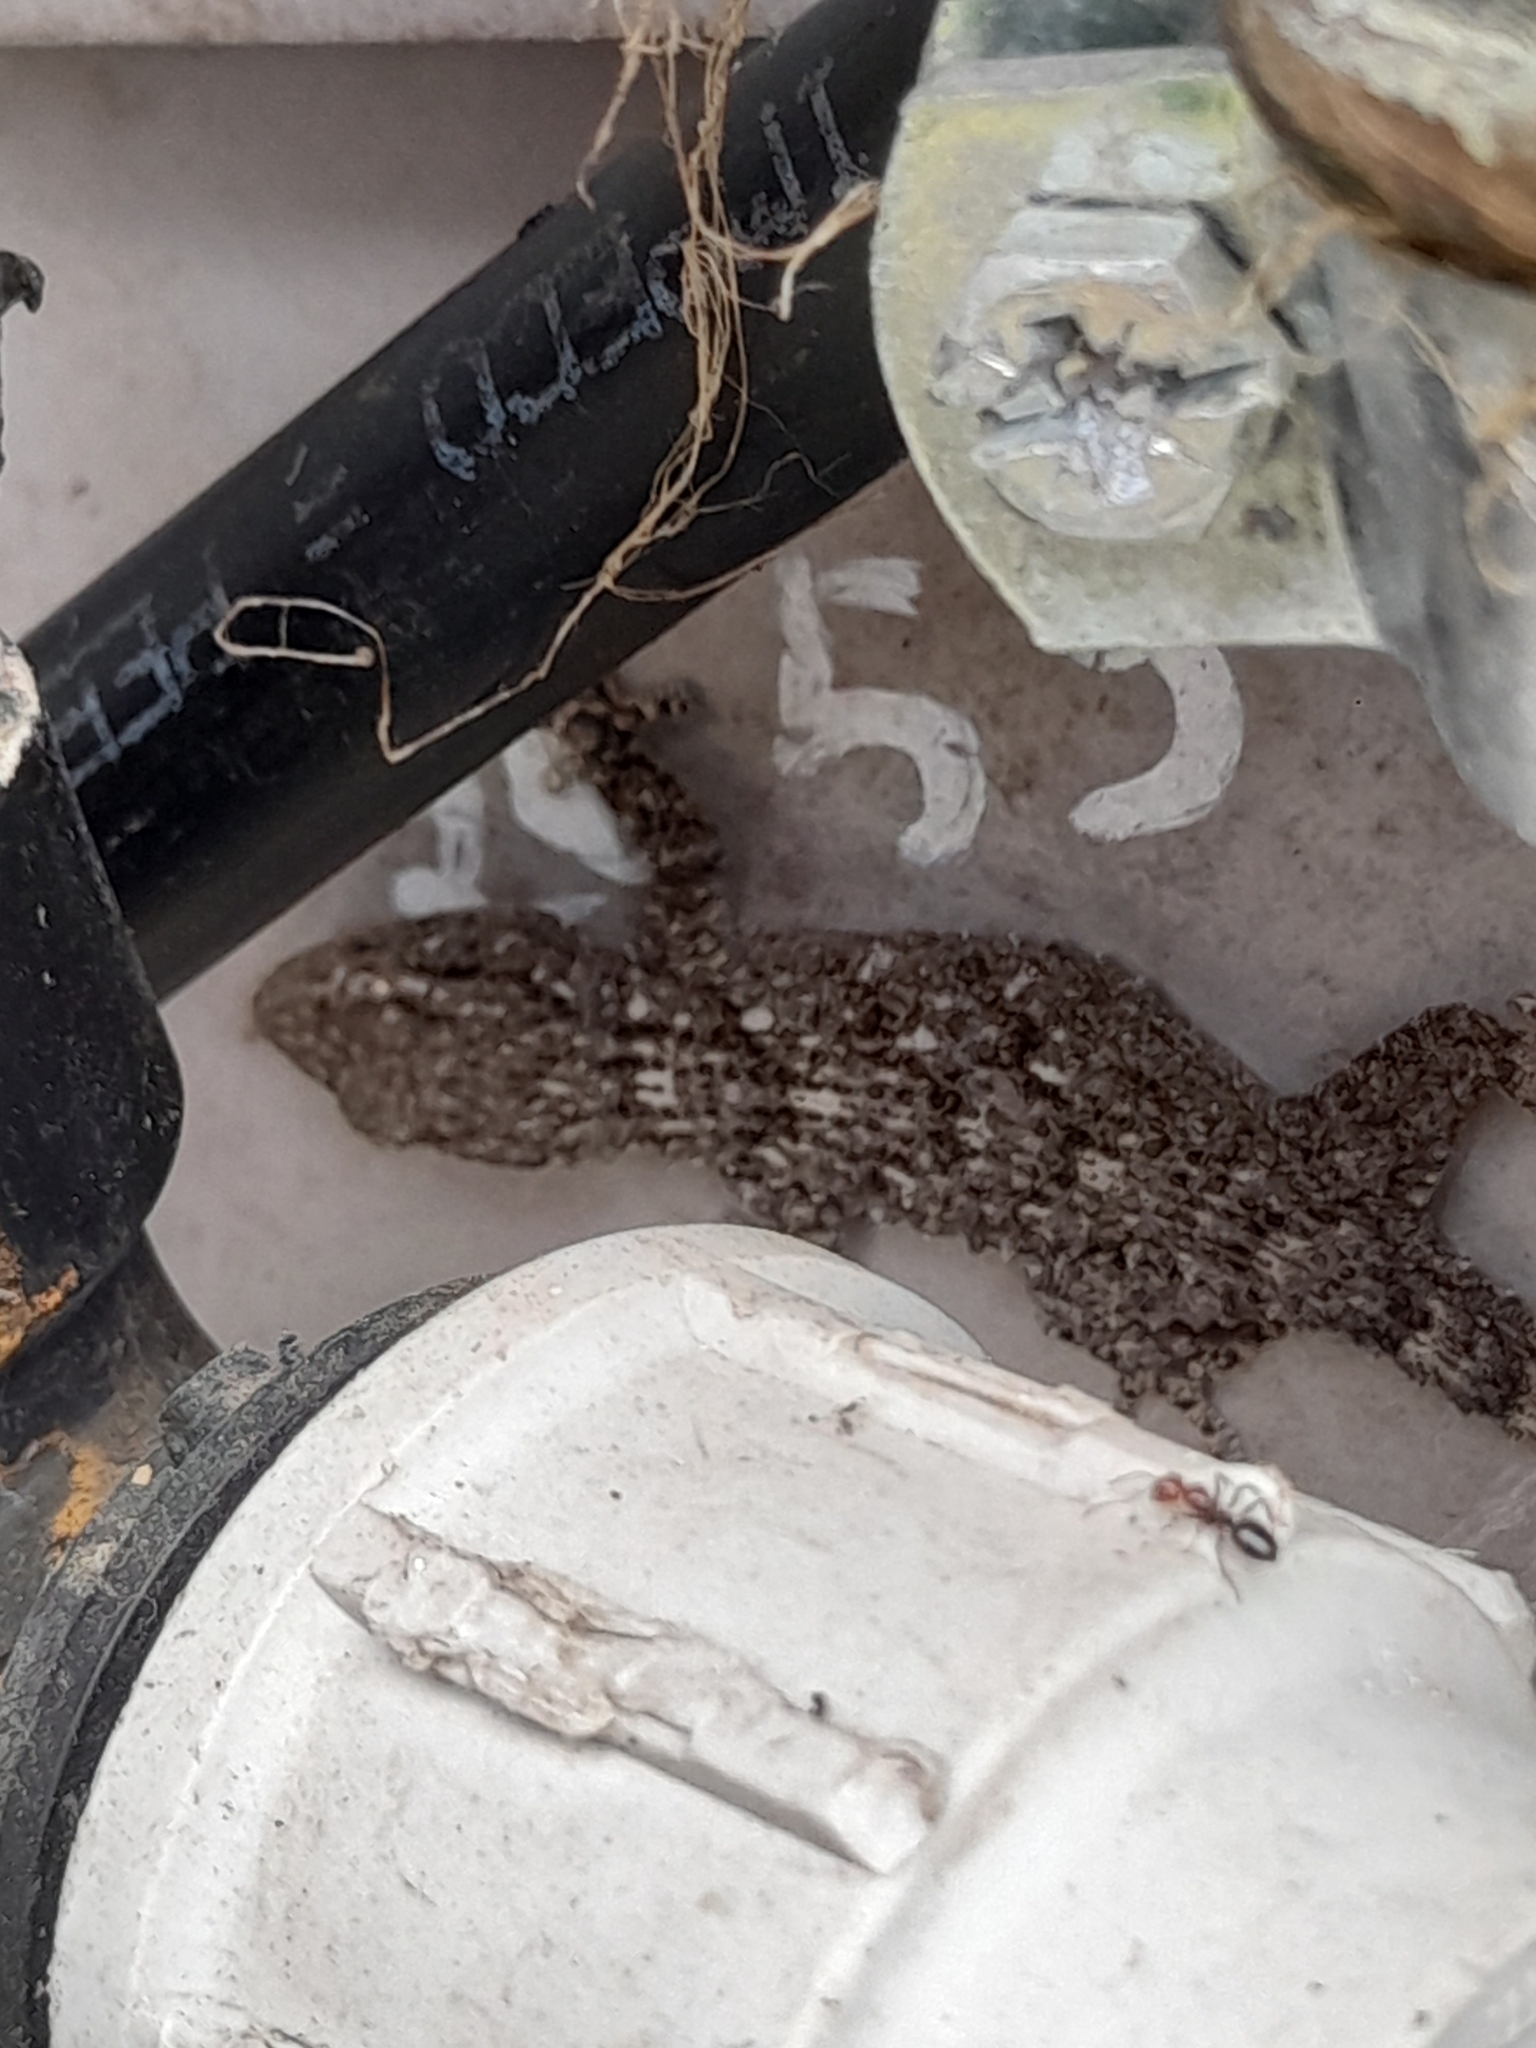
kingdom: Animalia
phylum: Chordata
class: Squamata
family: Phyllodactylidae
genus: Tarentola
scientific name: Tarentola mauritanica
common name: Moorish gecko
